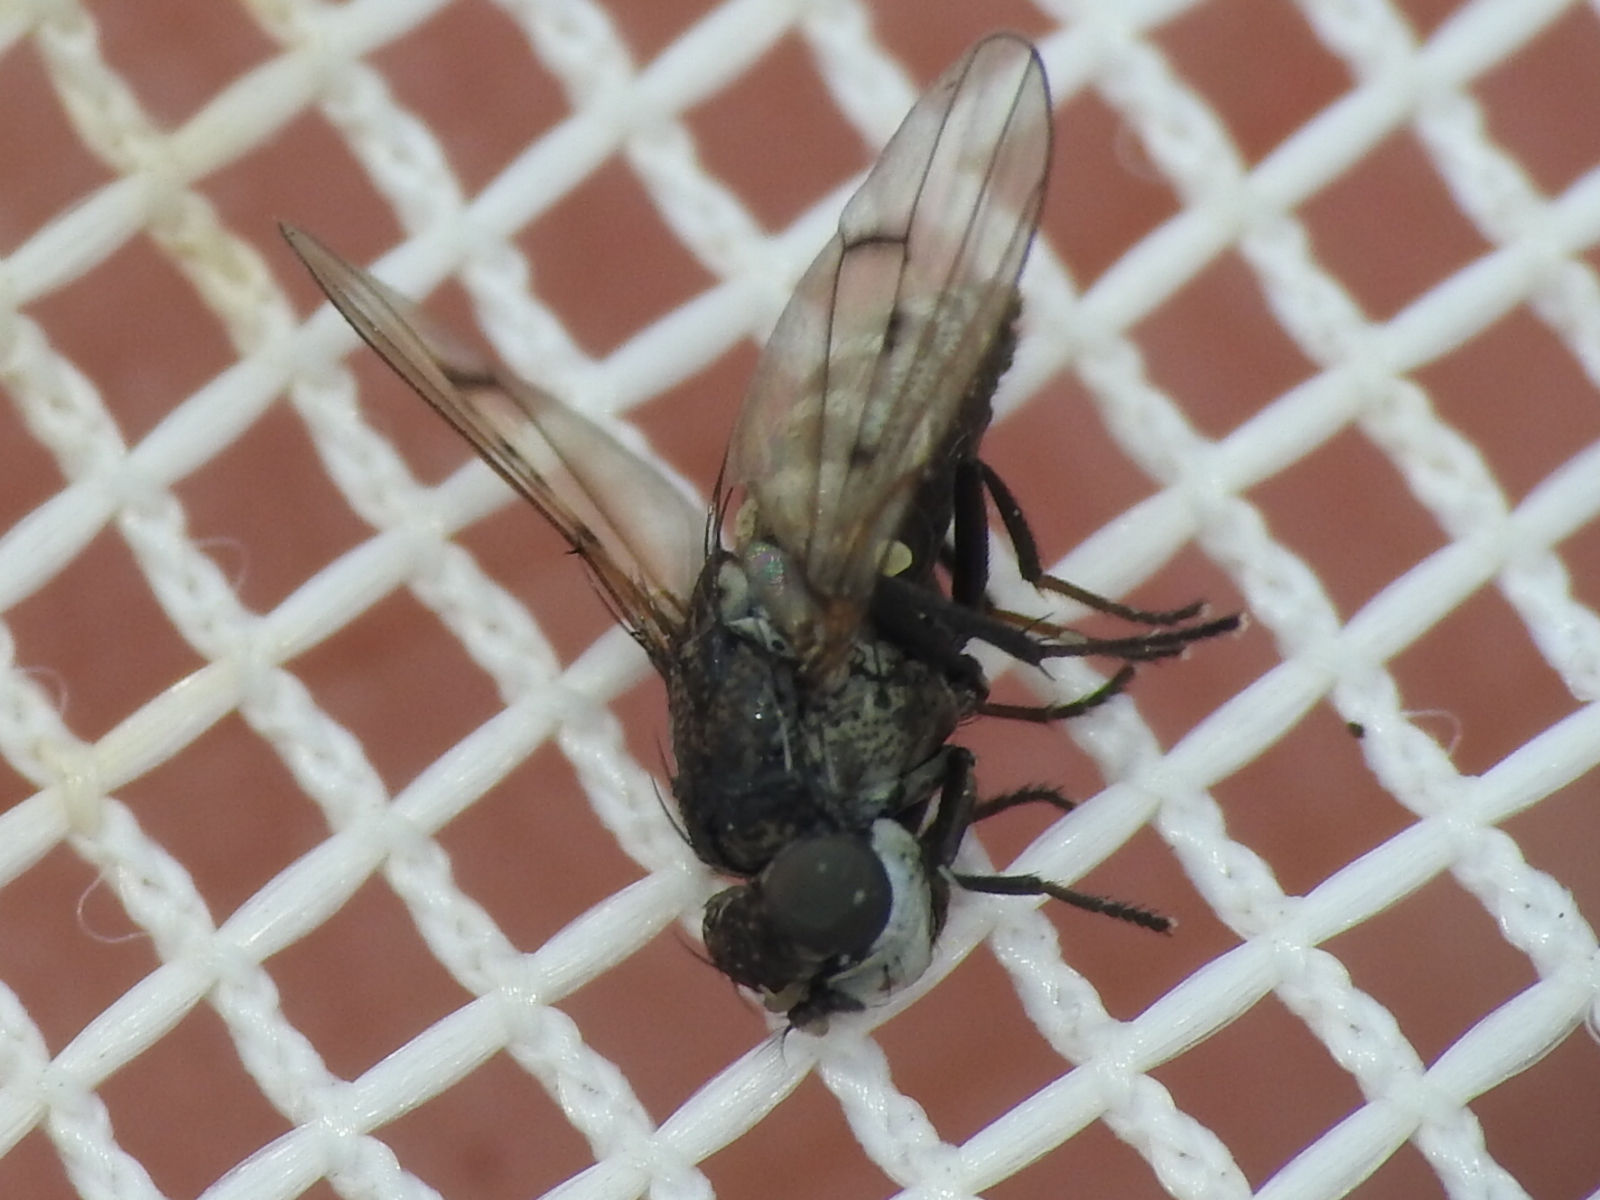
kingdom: Animalia
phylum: Arthropoda
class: Insecta
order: Diptera
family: Ephydridae
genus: Paralimna
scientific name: Paralimna punctipennis
